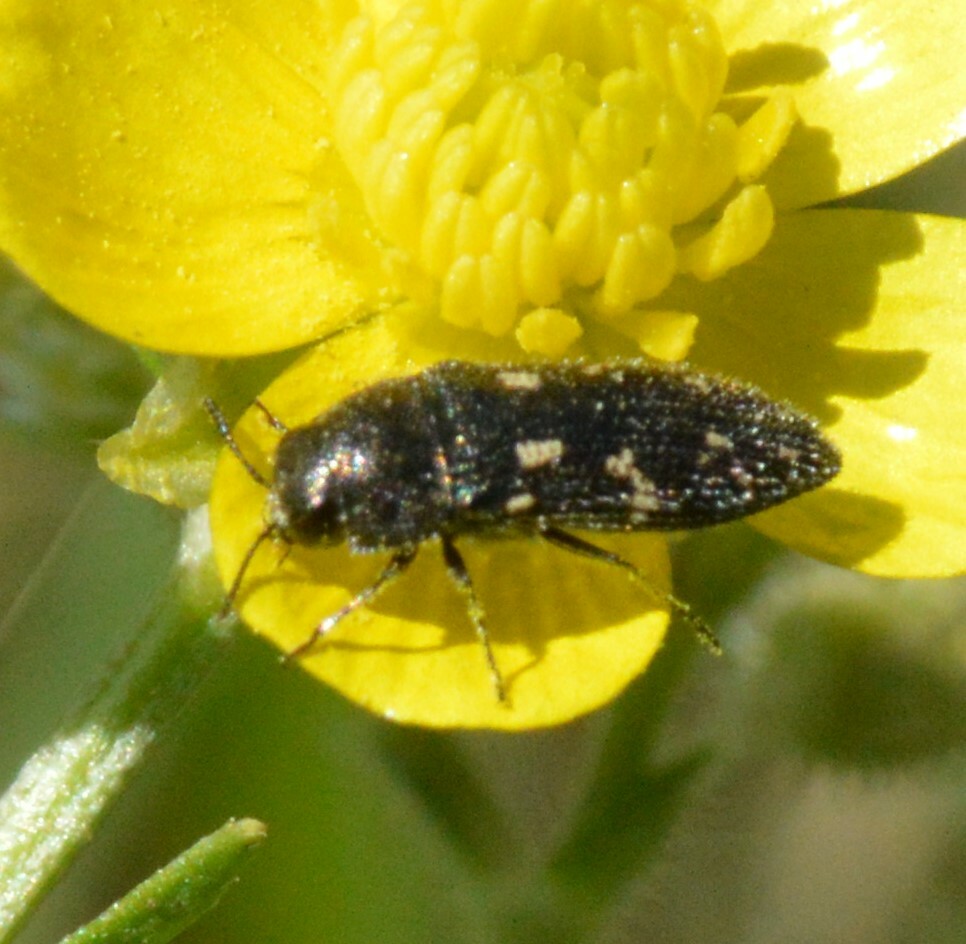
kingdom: Animalia
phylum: Arthropoda
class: Insecta
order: Coleoptera
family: Buprestidae
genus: Acmaeodera
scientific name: Acmaeodera tubulus
